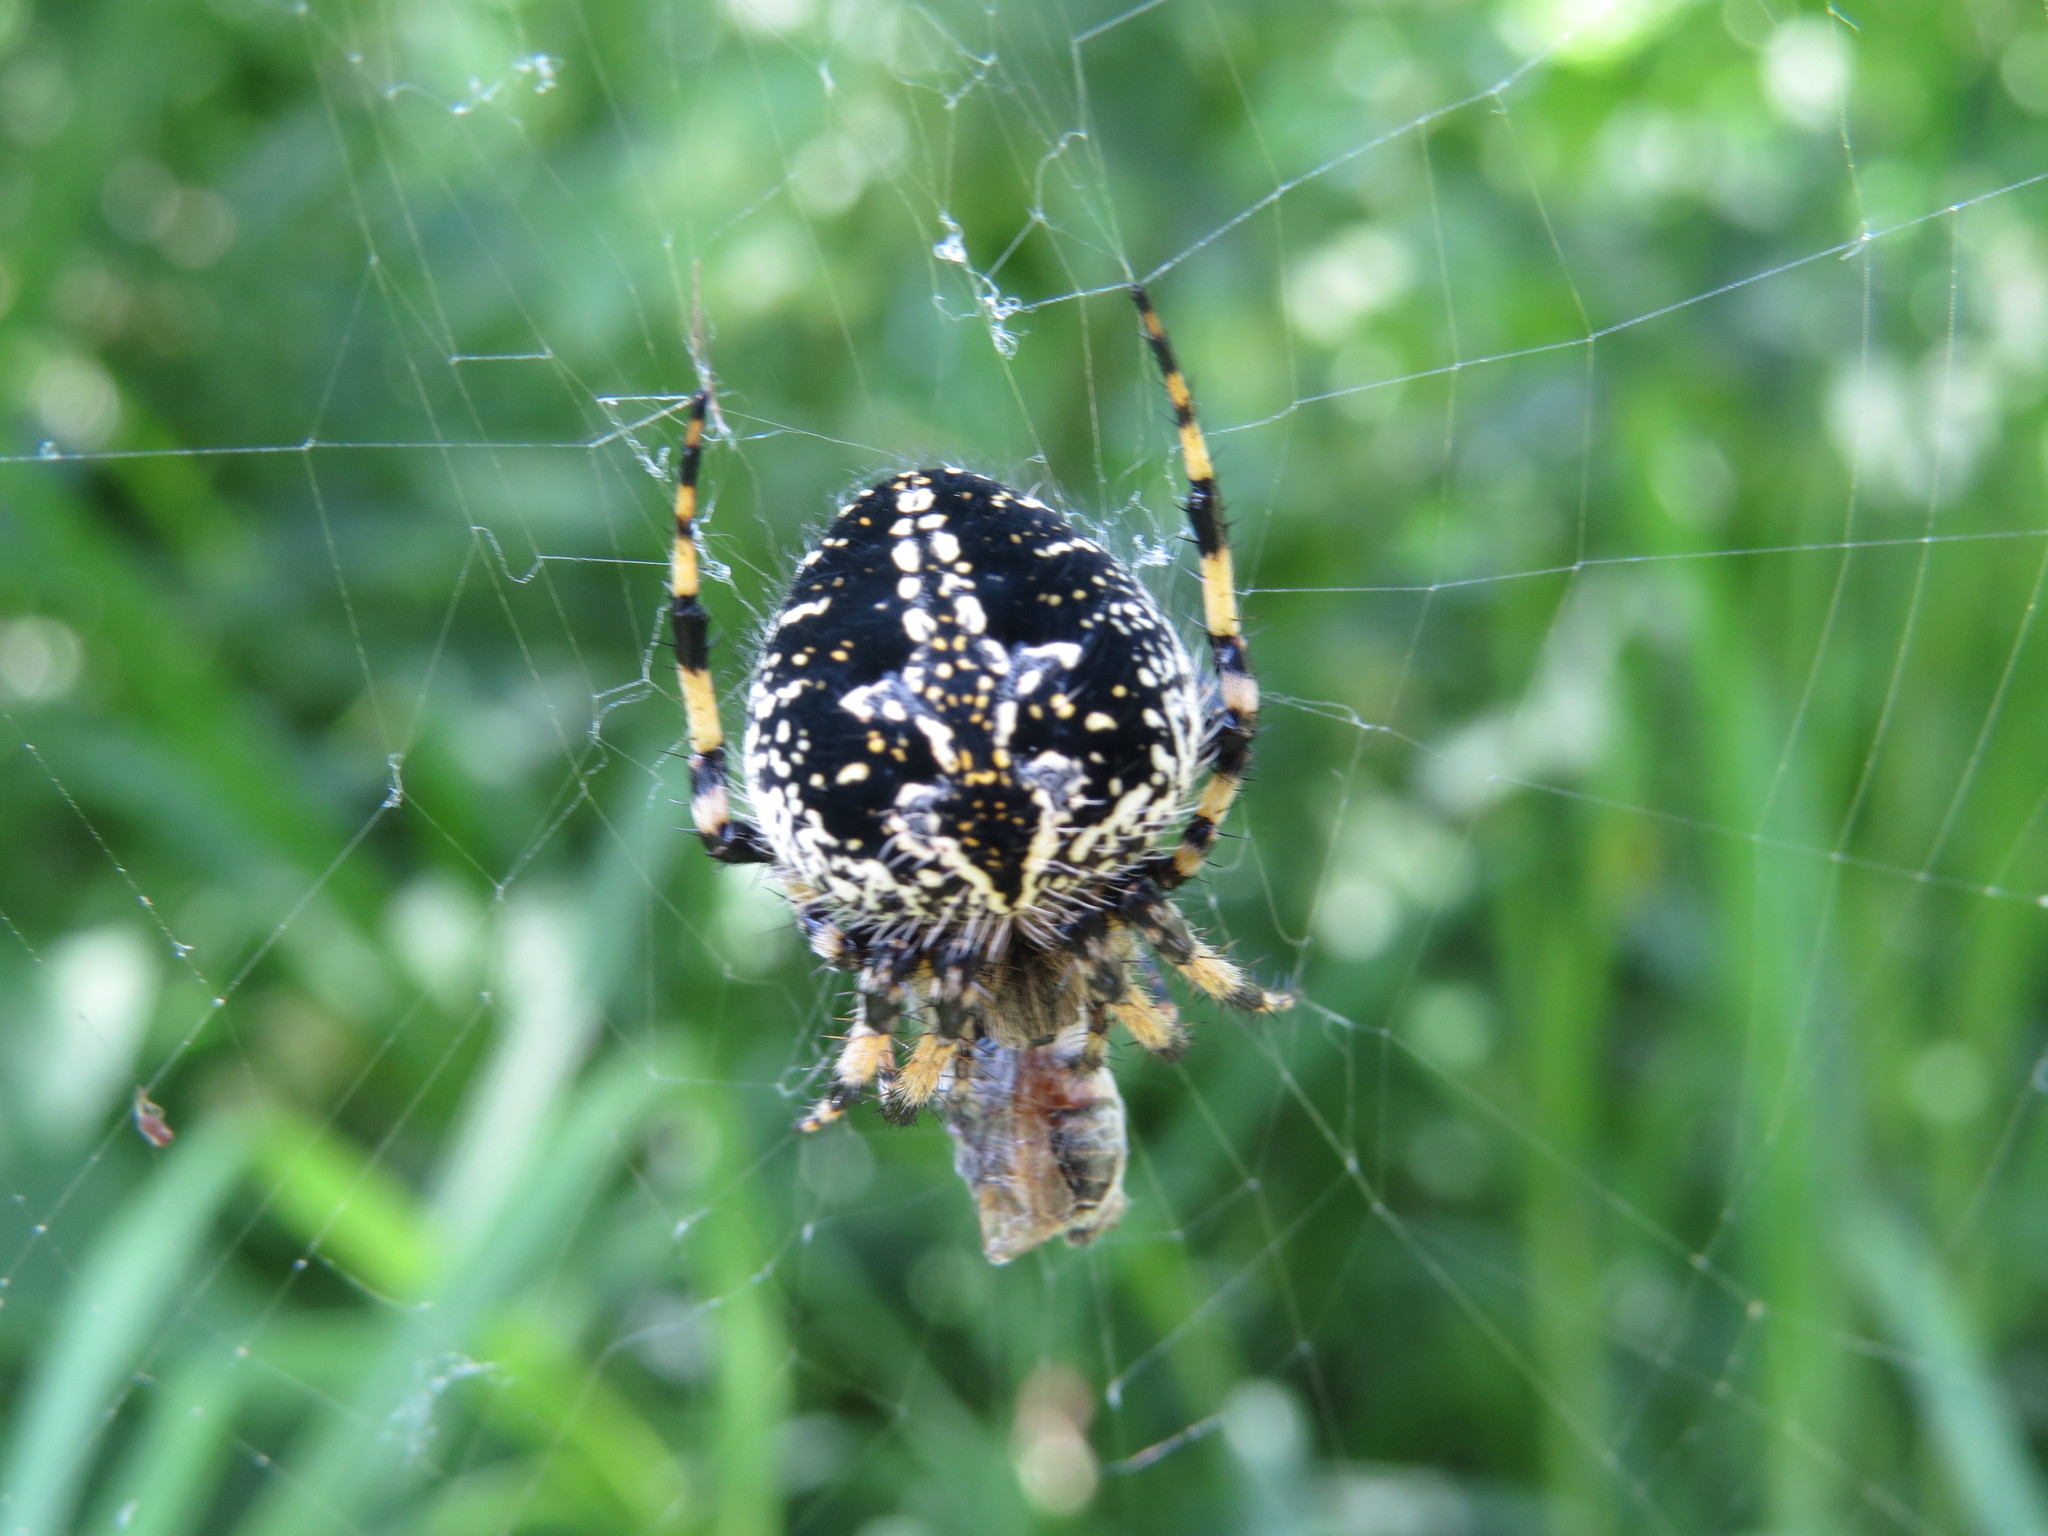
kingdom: Animalia
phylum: Arthropoda
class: Arachnida
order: Araneae
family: Araneidae
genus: Neoscona
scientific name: Neoscona orizabensis
